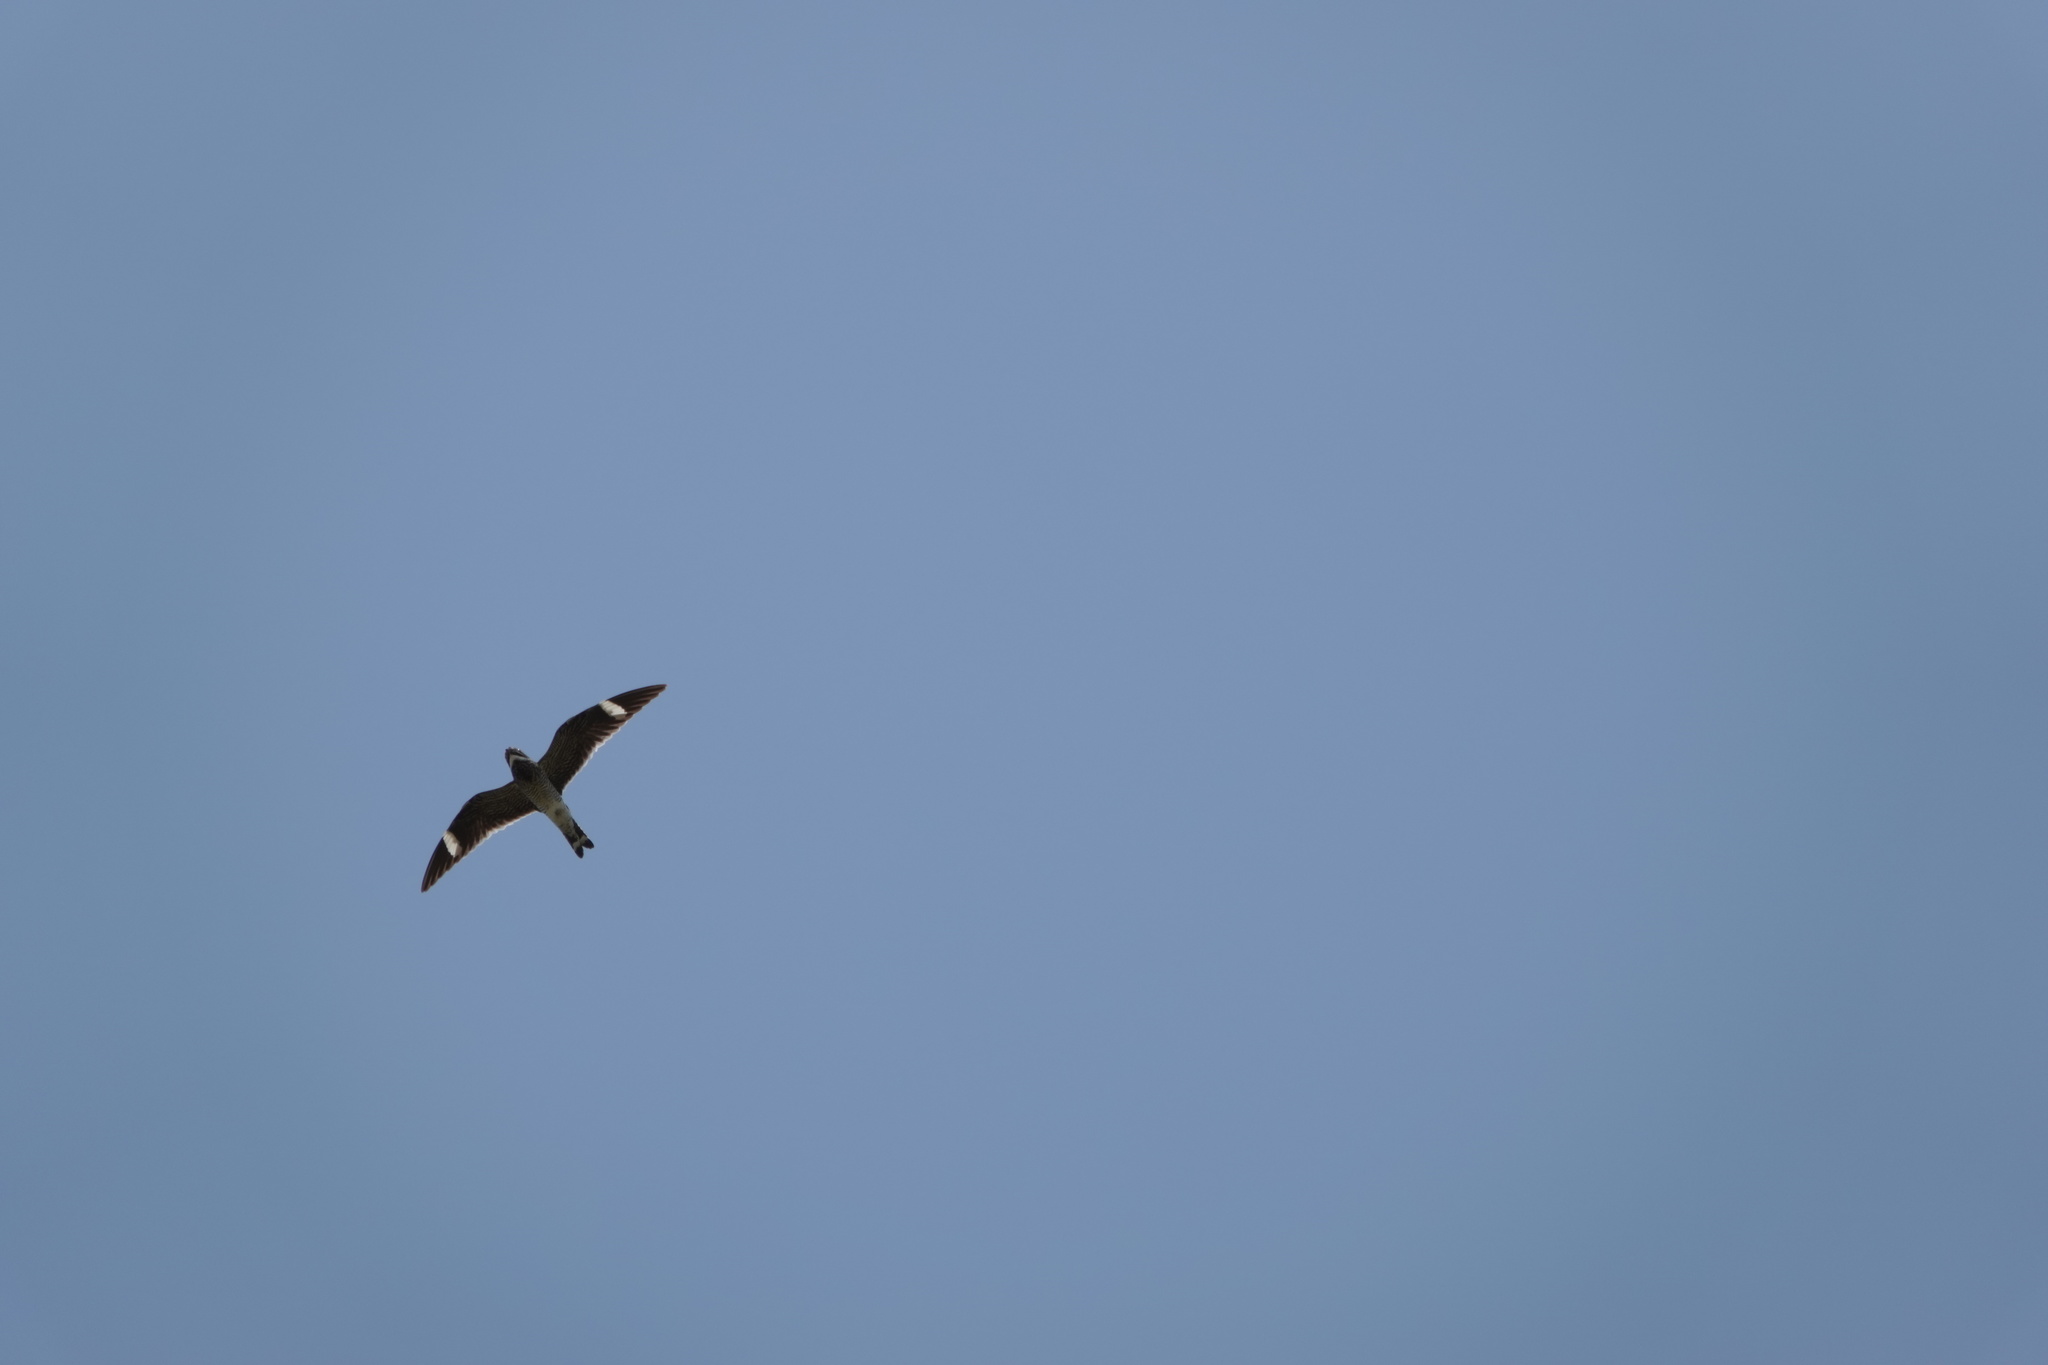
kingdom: Animalia
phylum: Chordata
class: Aves
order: Caprimulgiformes
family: Caprimulgidae
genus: Chordeiles
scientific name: Chordeiles minor
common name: Common nighthawk
